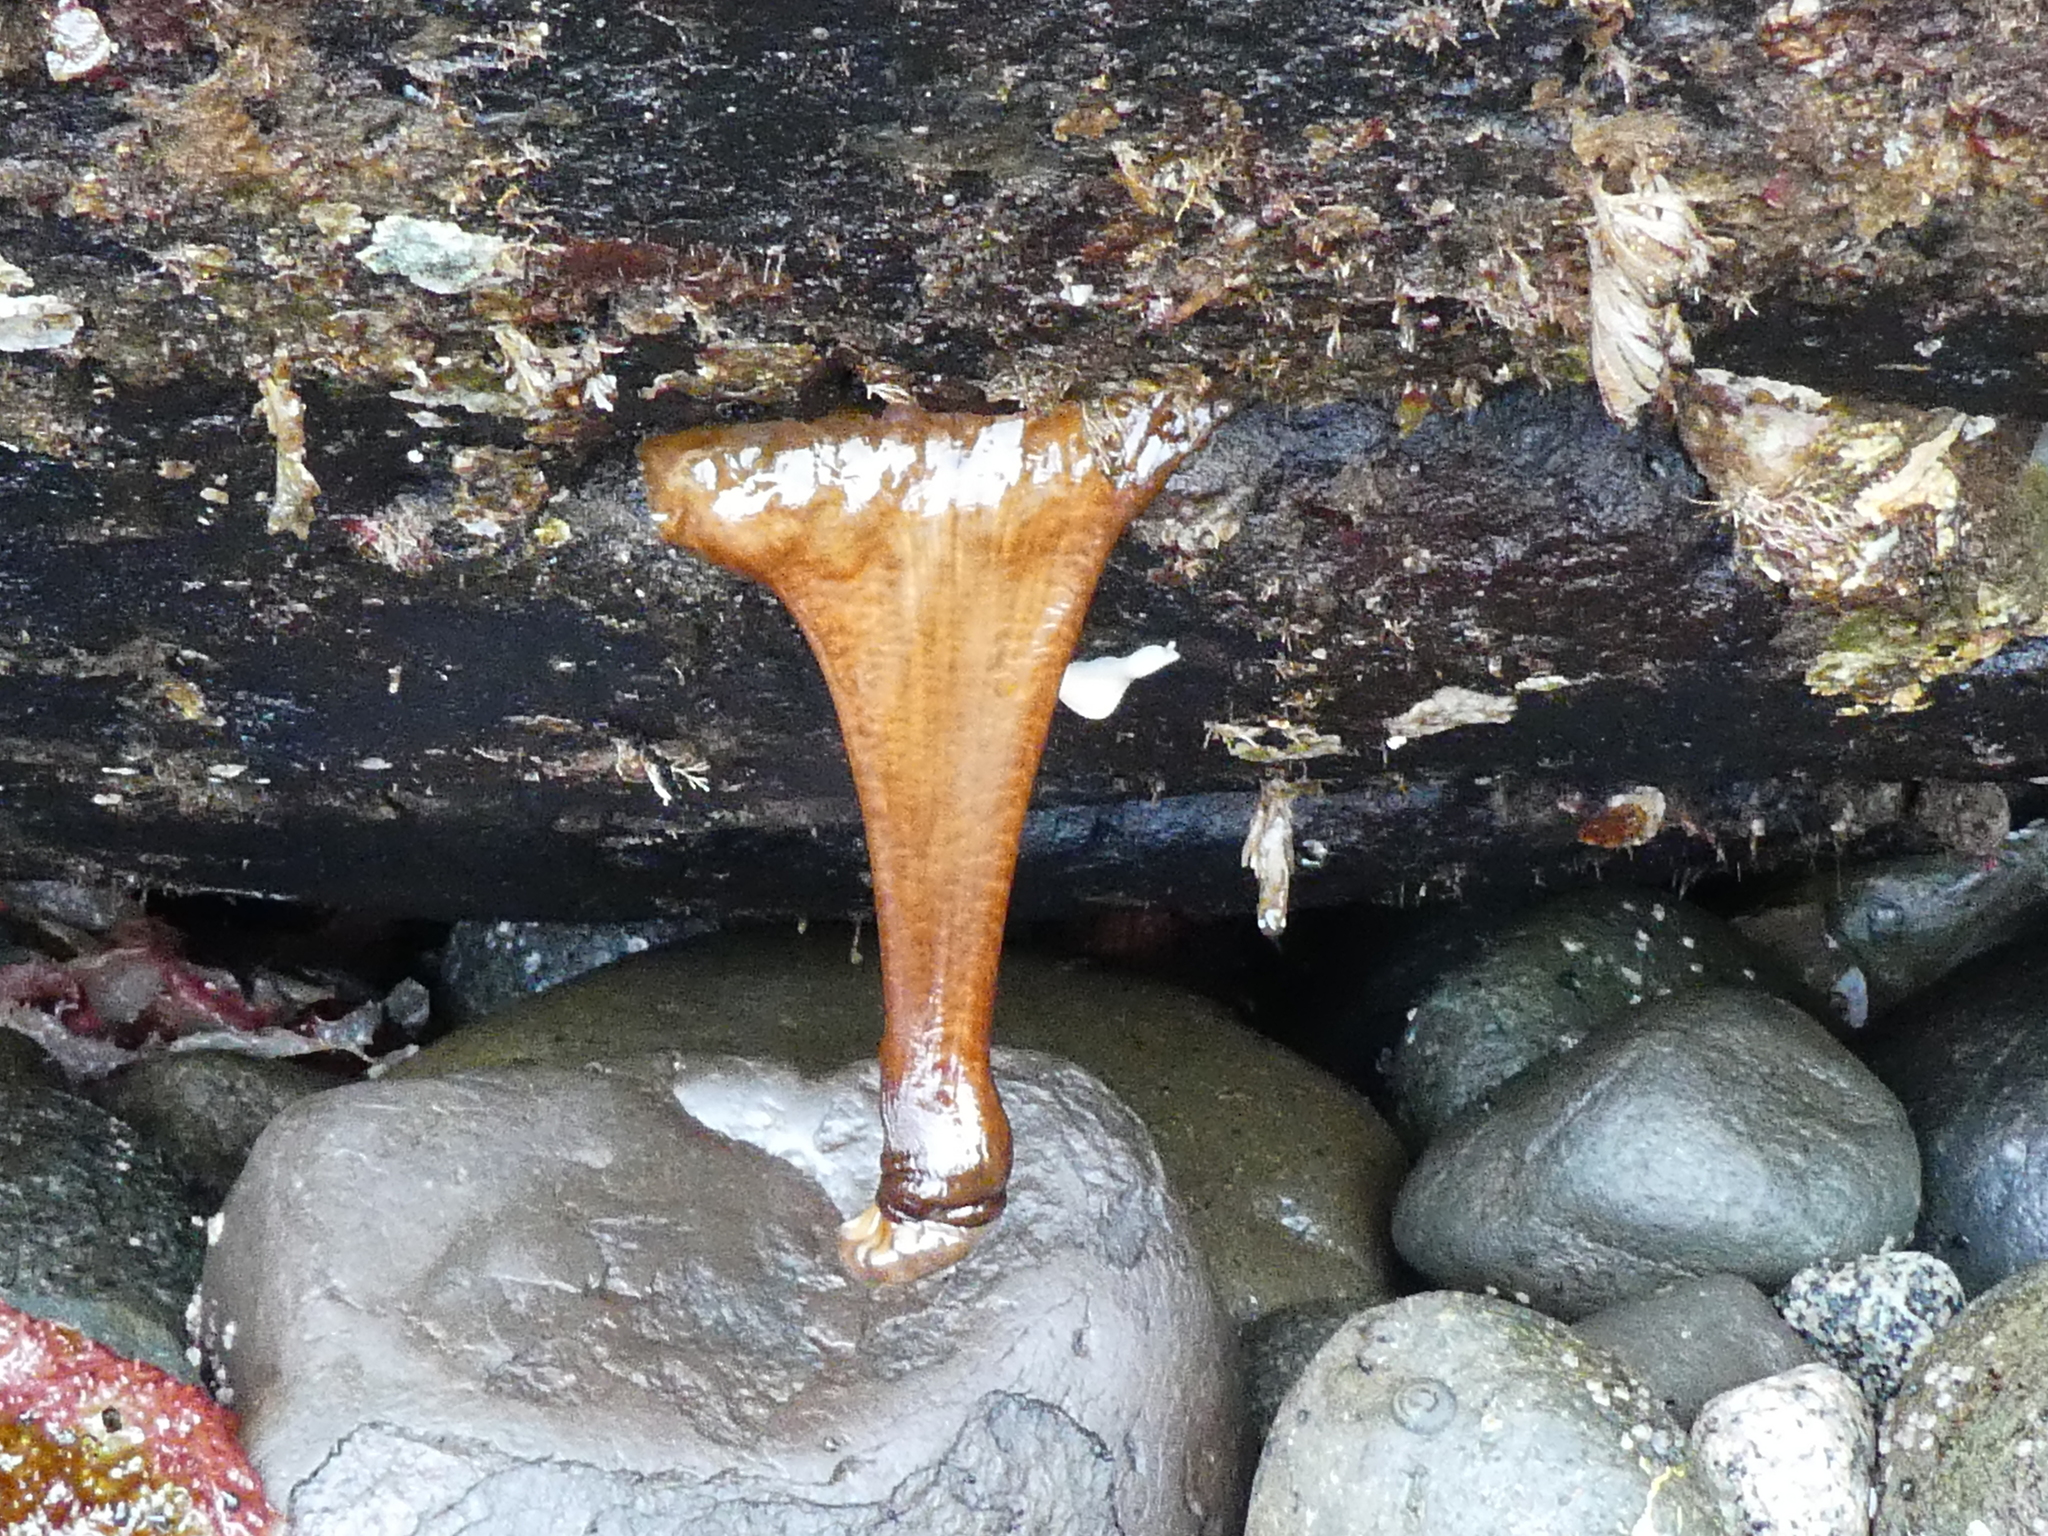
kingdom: Animalia
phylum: Cnidaria
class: Anthozoa
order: Actiniaria
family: Metridiidae
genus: Metridium
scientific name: Metridium farcimen
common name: Gigantic anemone
